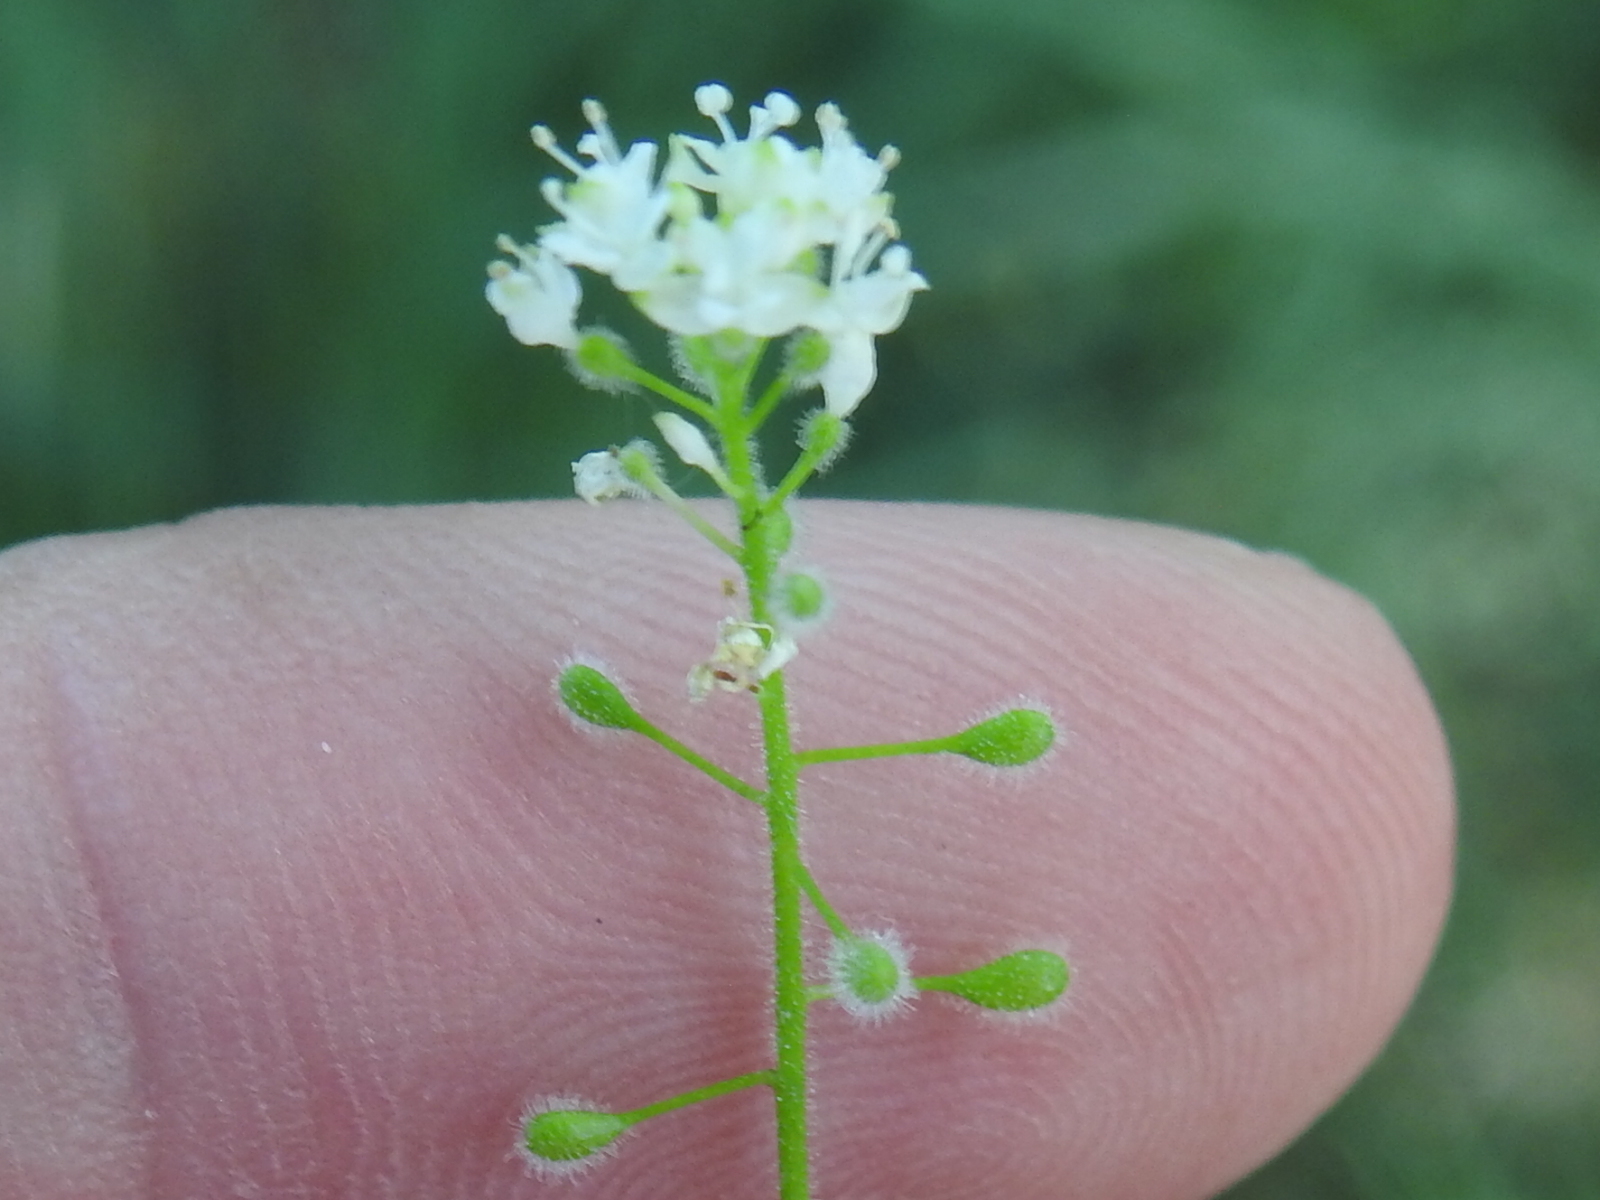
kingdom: Plantae
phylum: Tracheophyta
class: Magnoliopsida
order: Myrtales
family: Onagraceae
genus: Circaea
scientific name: Circaea alpina
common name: Alpine enchanter's-nightshade
